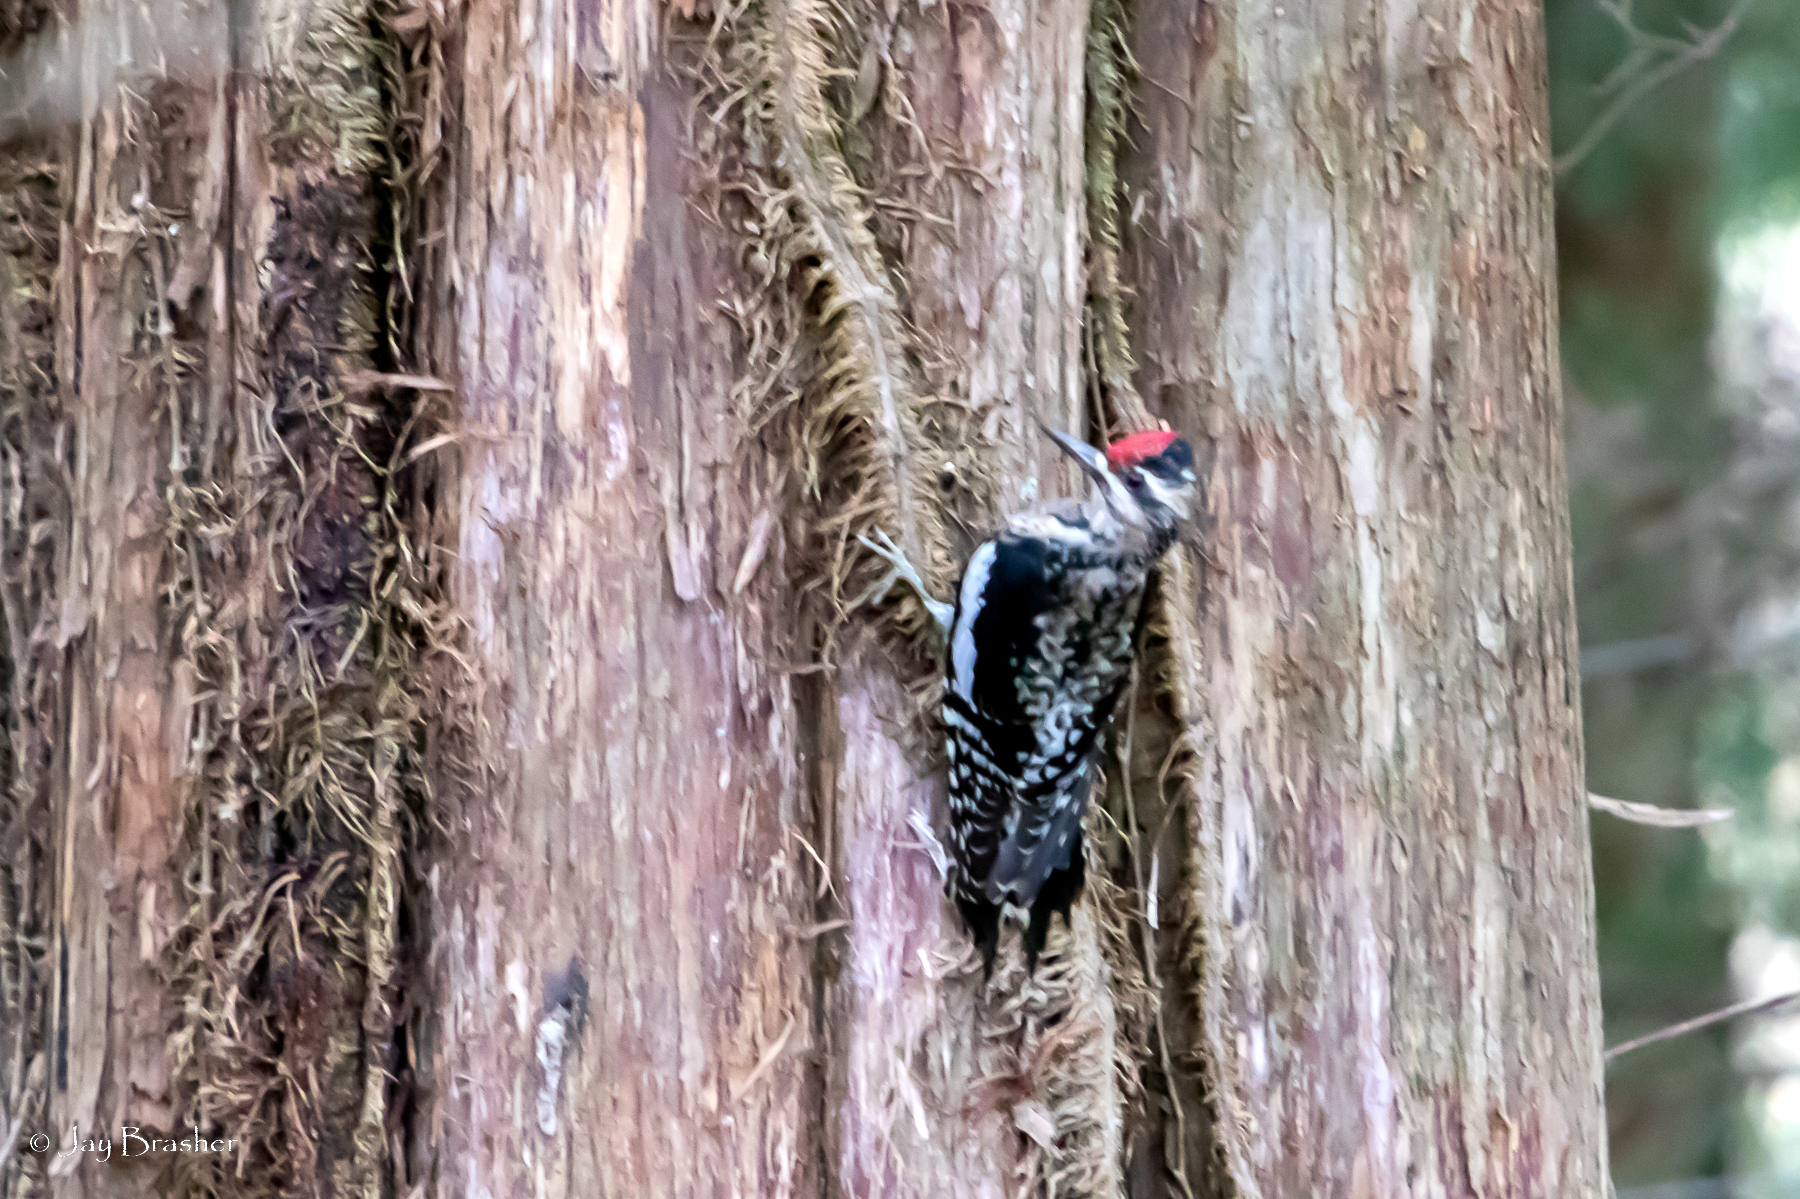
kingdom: Animalia
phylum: Chordata
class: Aves
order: Piciformes
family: Picidae
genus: Sphyrapicus
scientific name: Sphyrapicus varius
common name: Yellow-bellied sapsucker
